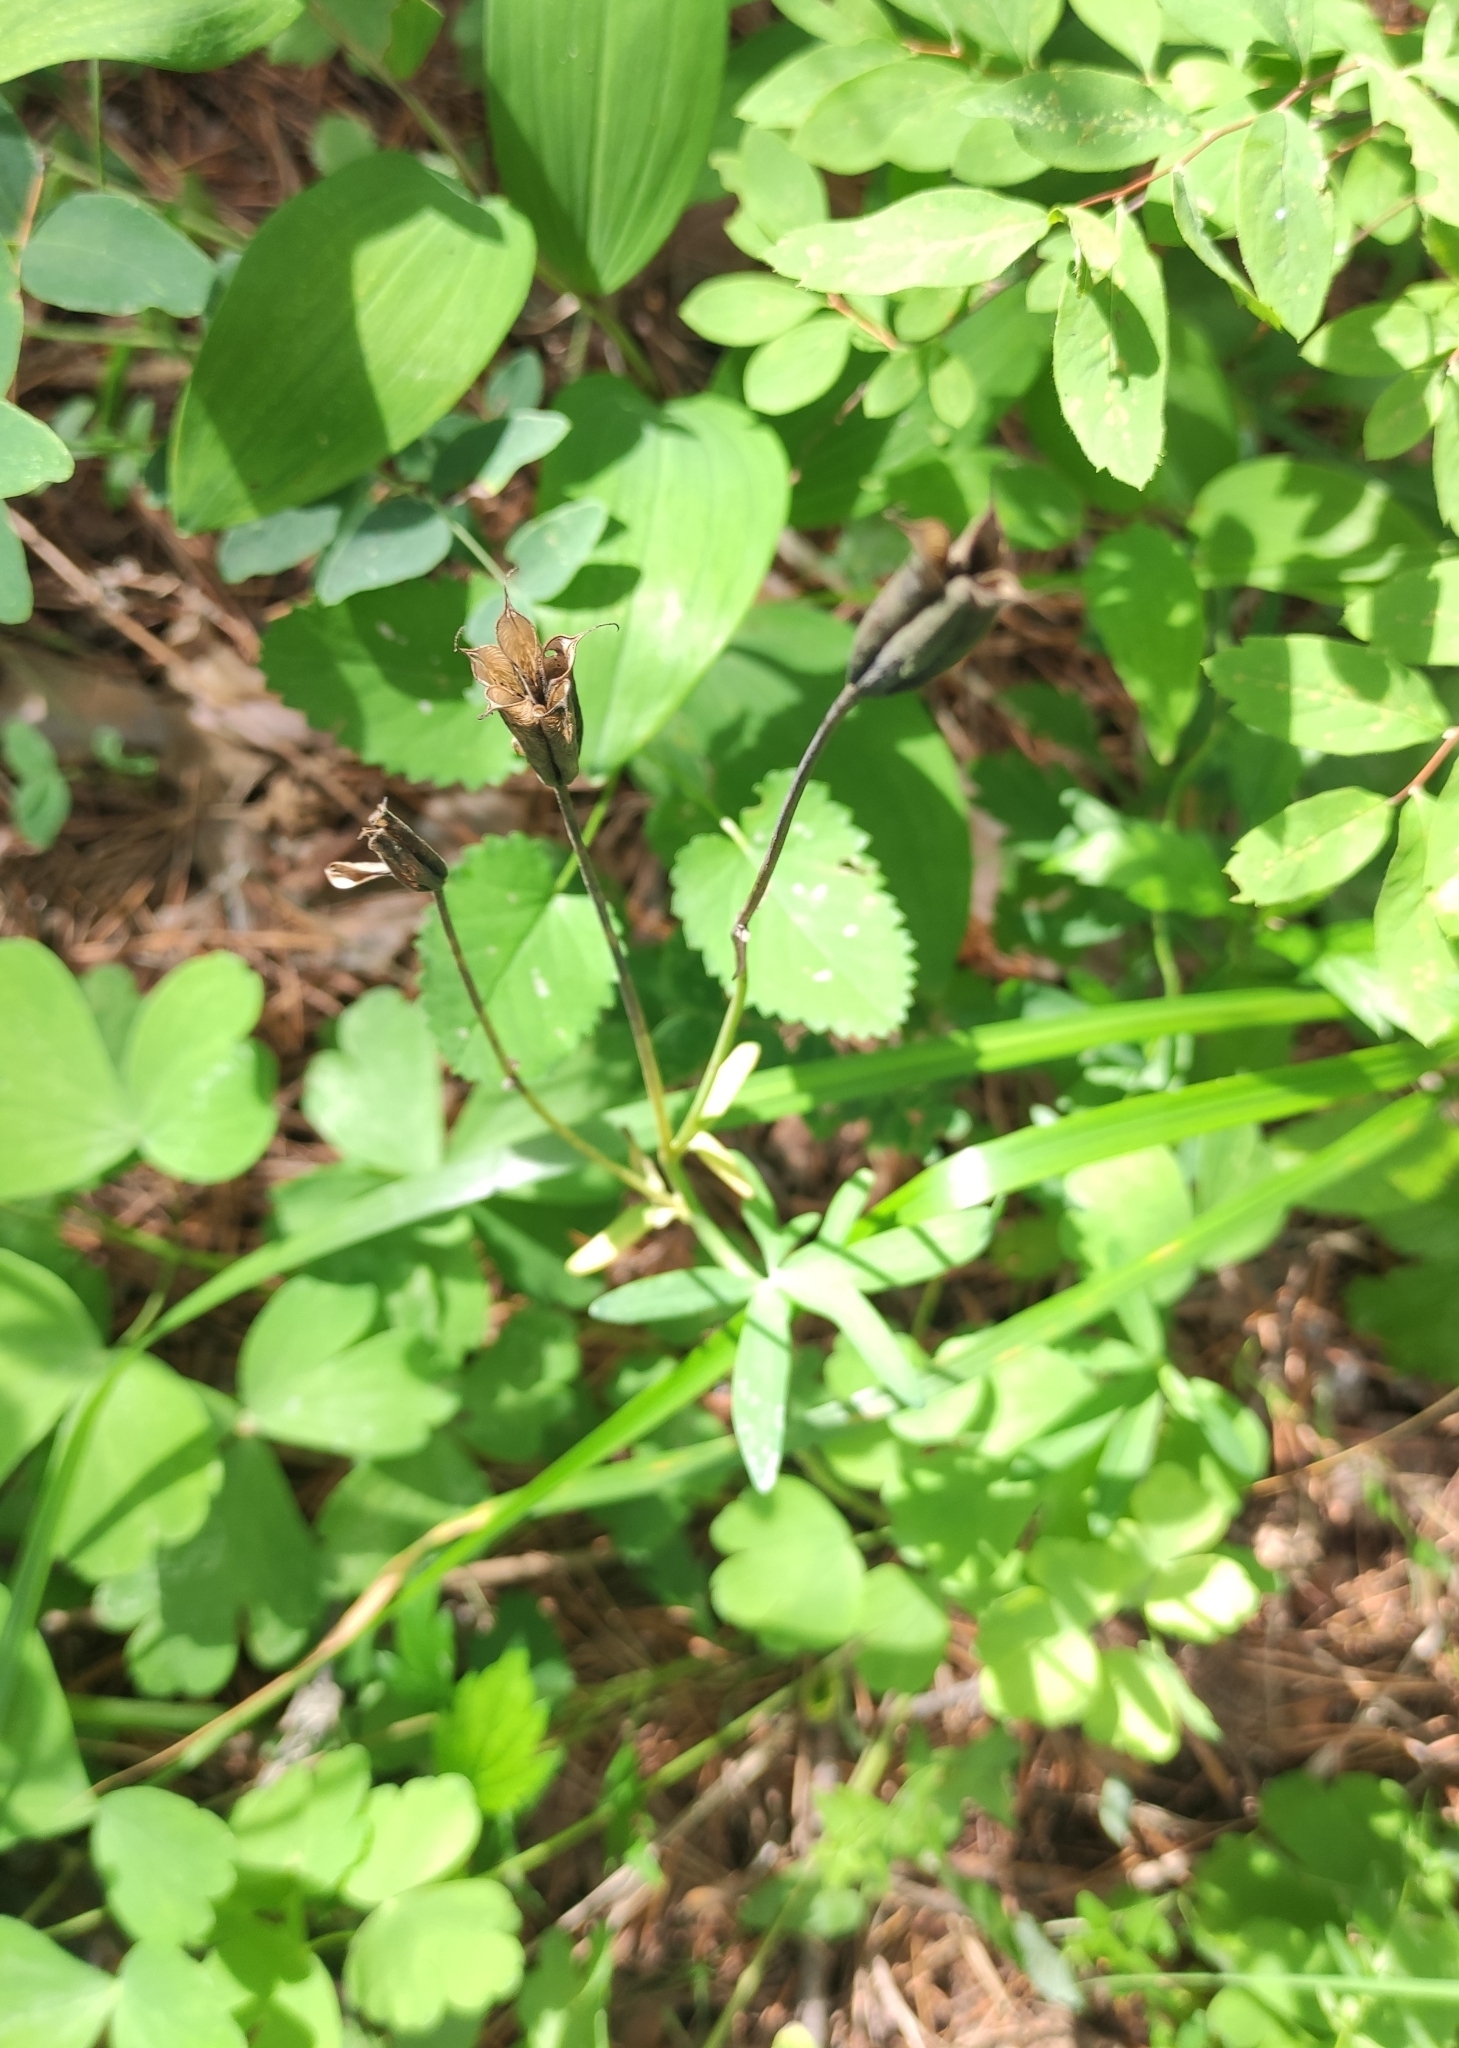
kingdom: Plantae
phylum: Tracheophyta
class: Magnoliopsida
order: Ranunculales
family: Ranunculaceae
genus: Aquilegia
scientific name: Aquilegia sibirica
